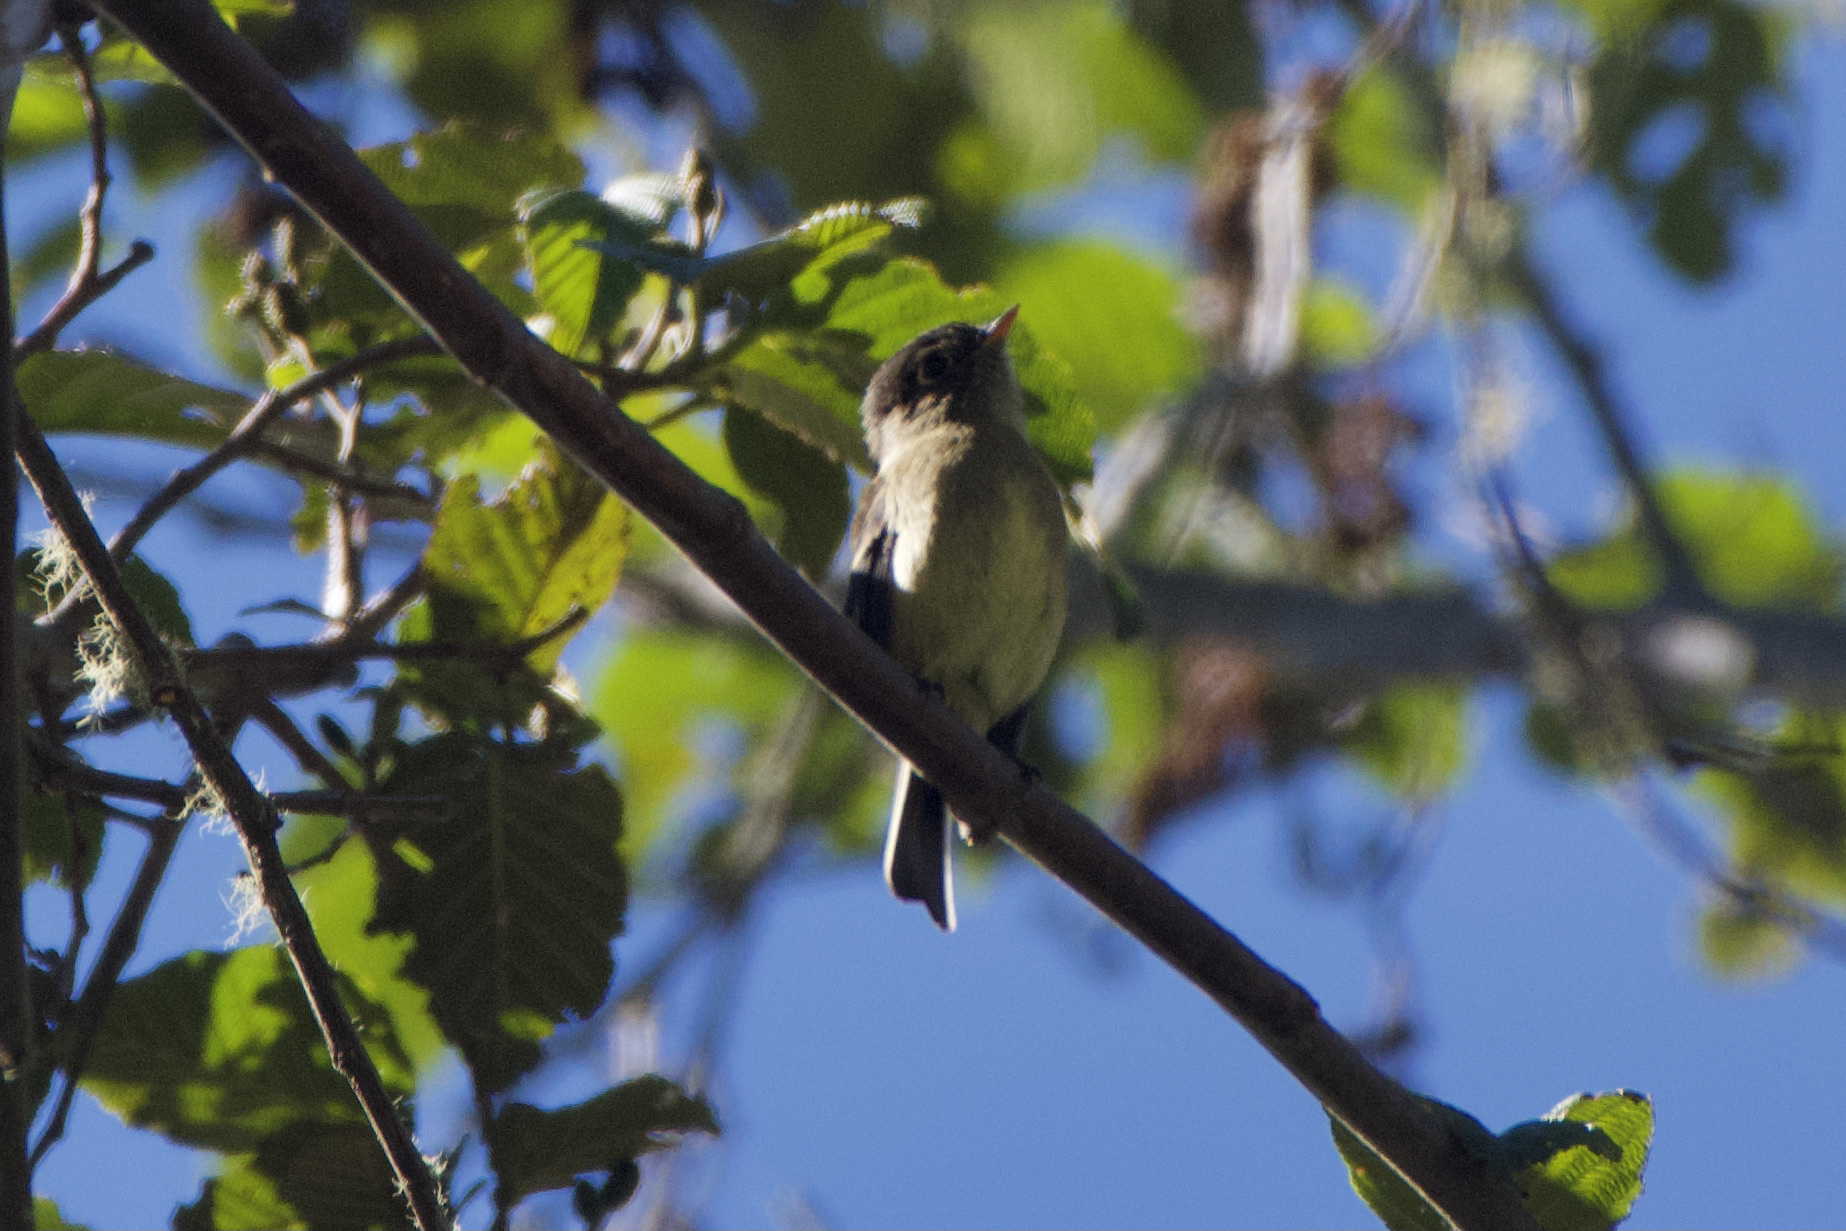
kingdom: Animalia
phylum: Chordata
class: Aves
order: Passeriformes
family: Tyrannidae
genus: Empidonax
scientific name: Empidonax atriceps
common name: Black-capped flycatcher
